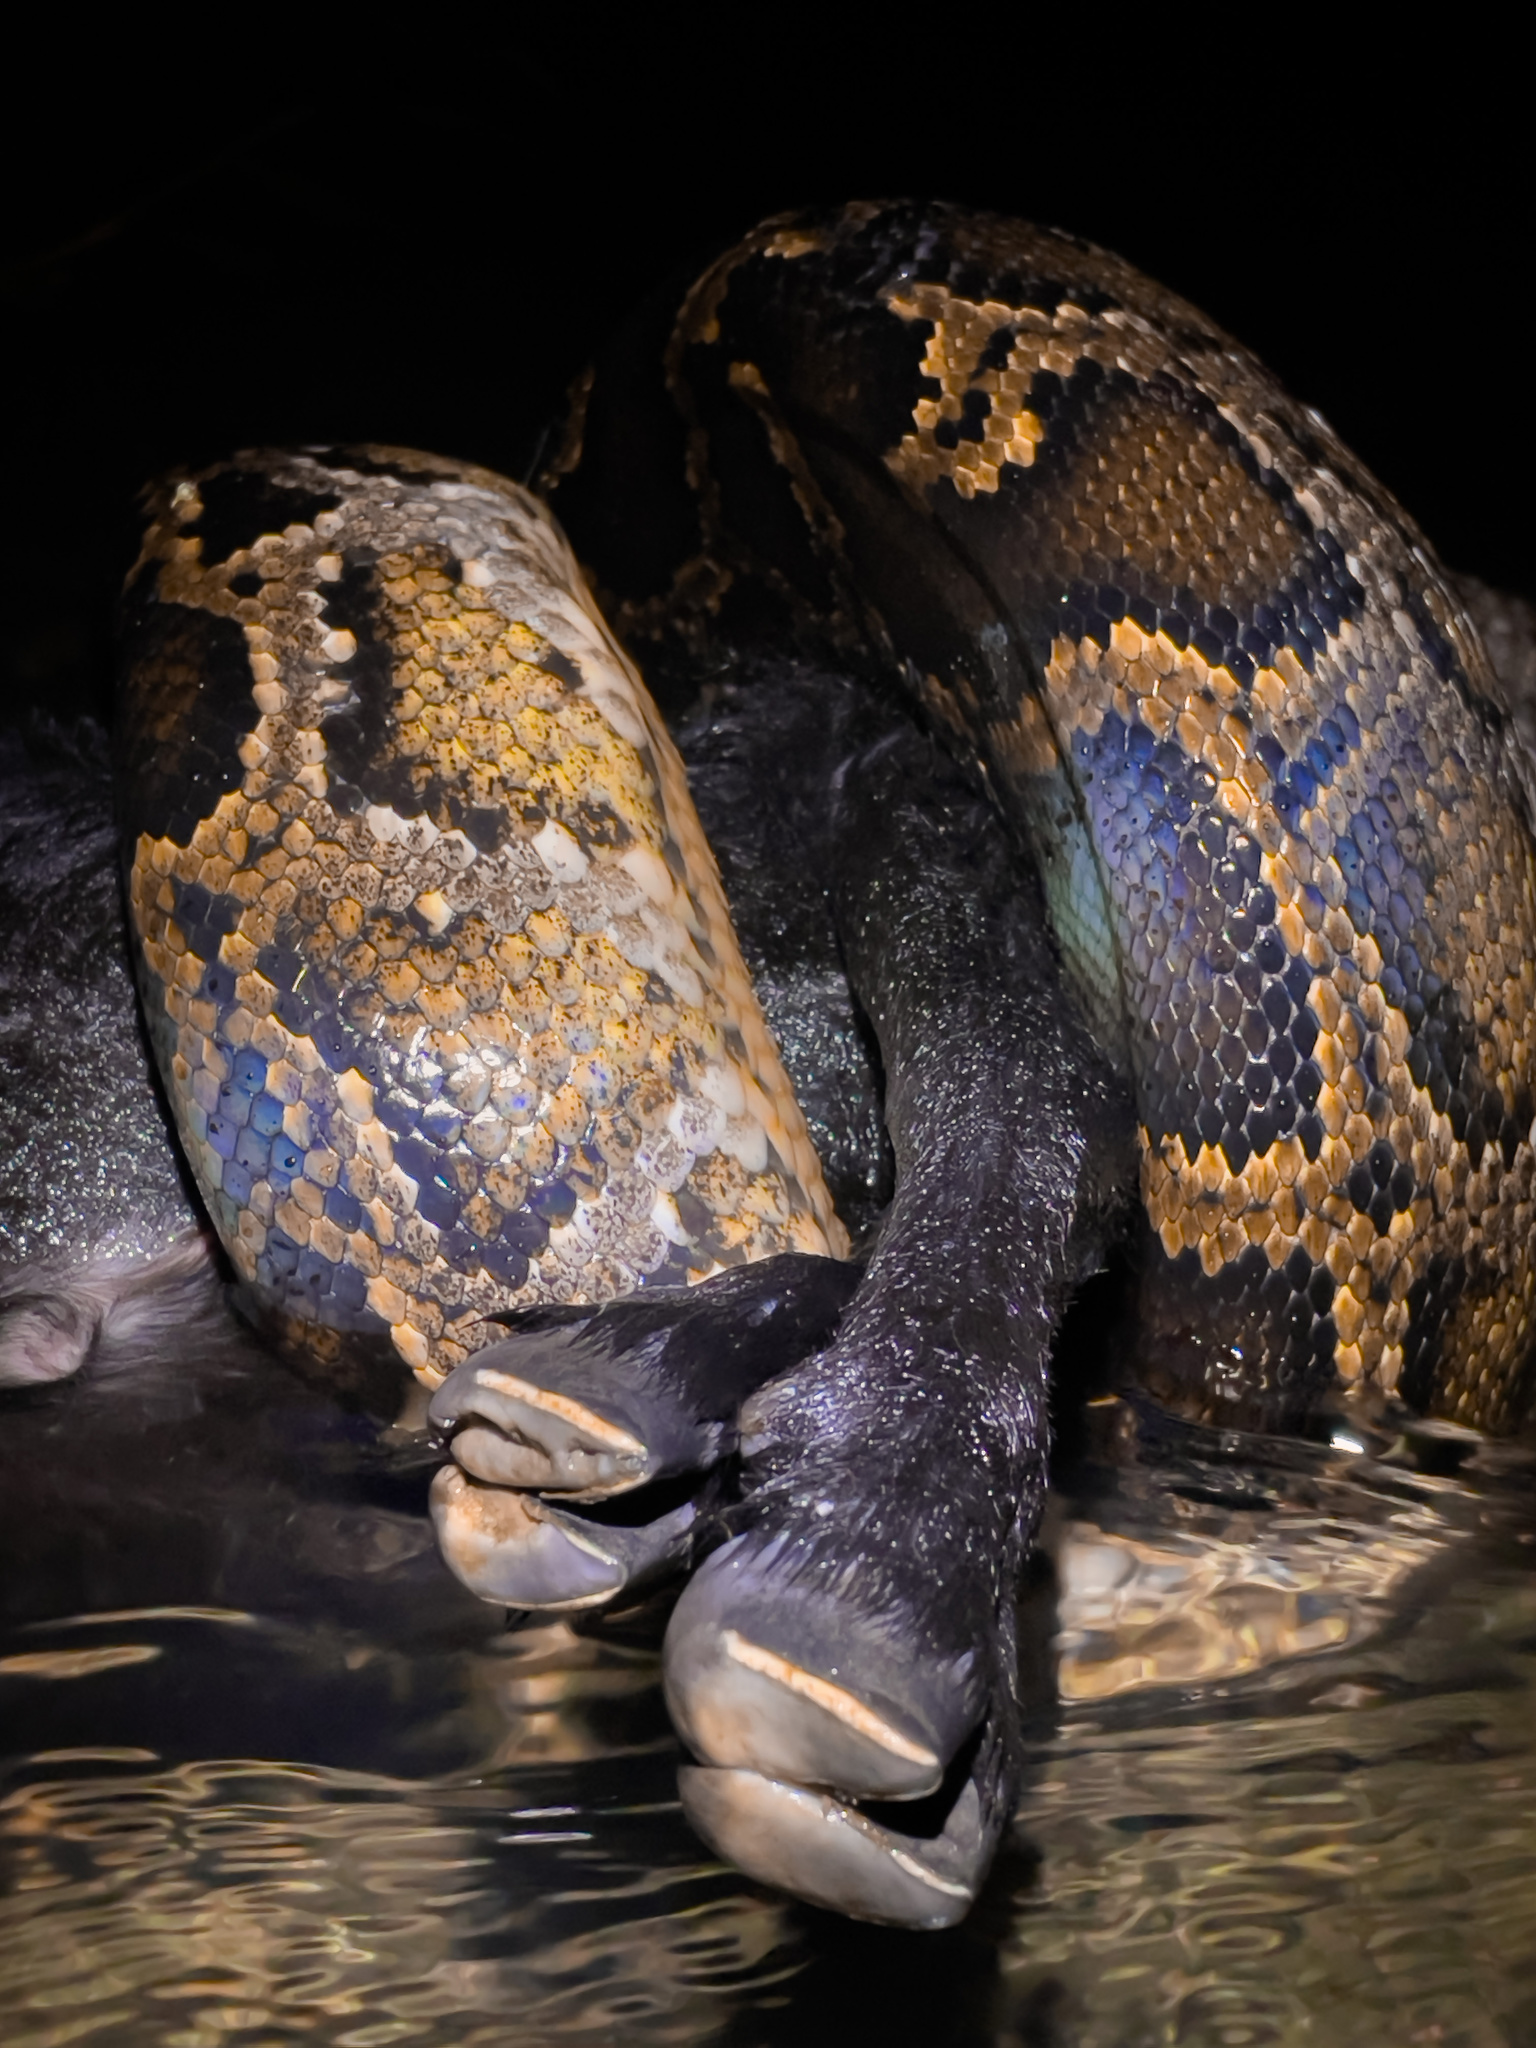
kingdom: Animalia
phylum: Chordata
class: Squamata
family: Pythonidae
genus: Python
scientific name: Python bivittatus
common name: Burmese python
